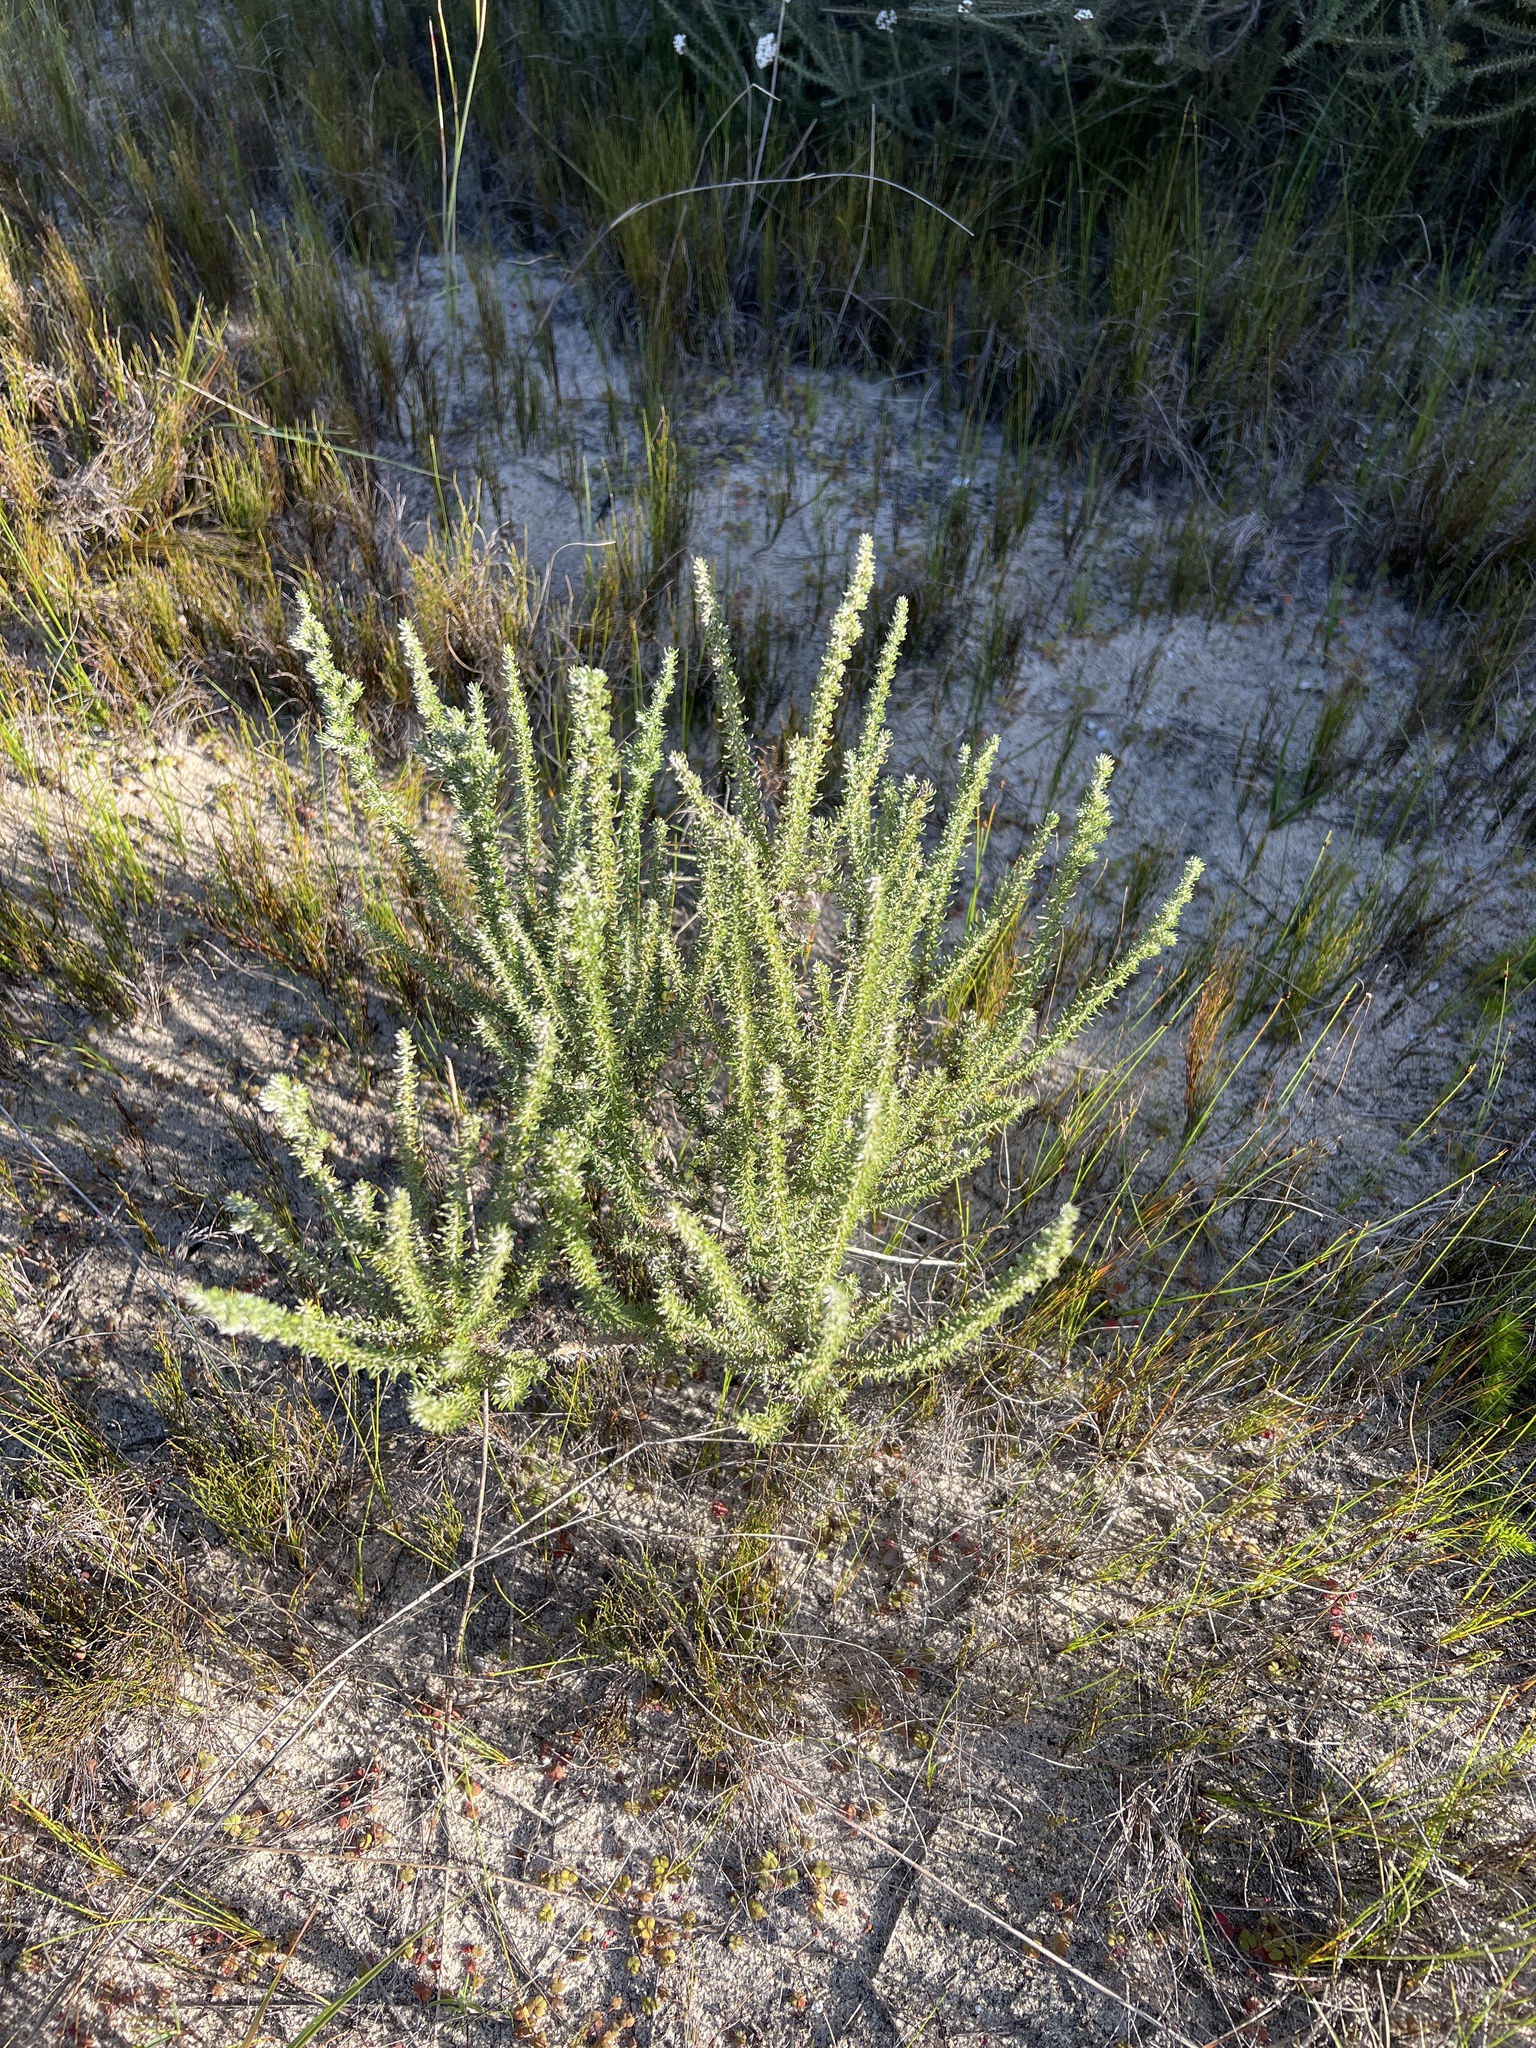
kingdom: Plantae
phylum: Tracheophyta
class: Magnoliopsida
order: Asterales
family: Asteraceae
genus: Metalasia
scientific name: Metalasia muricata
